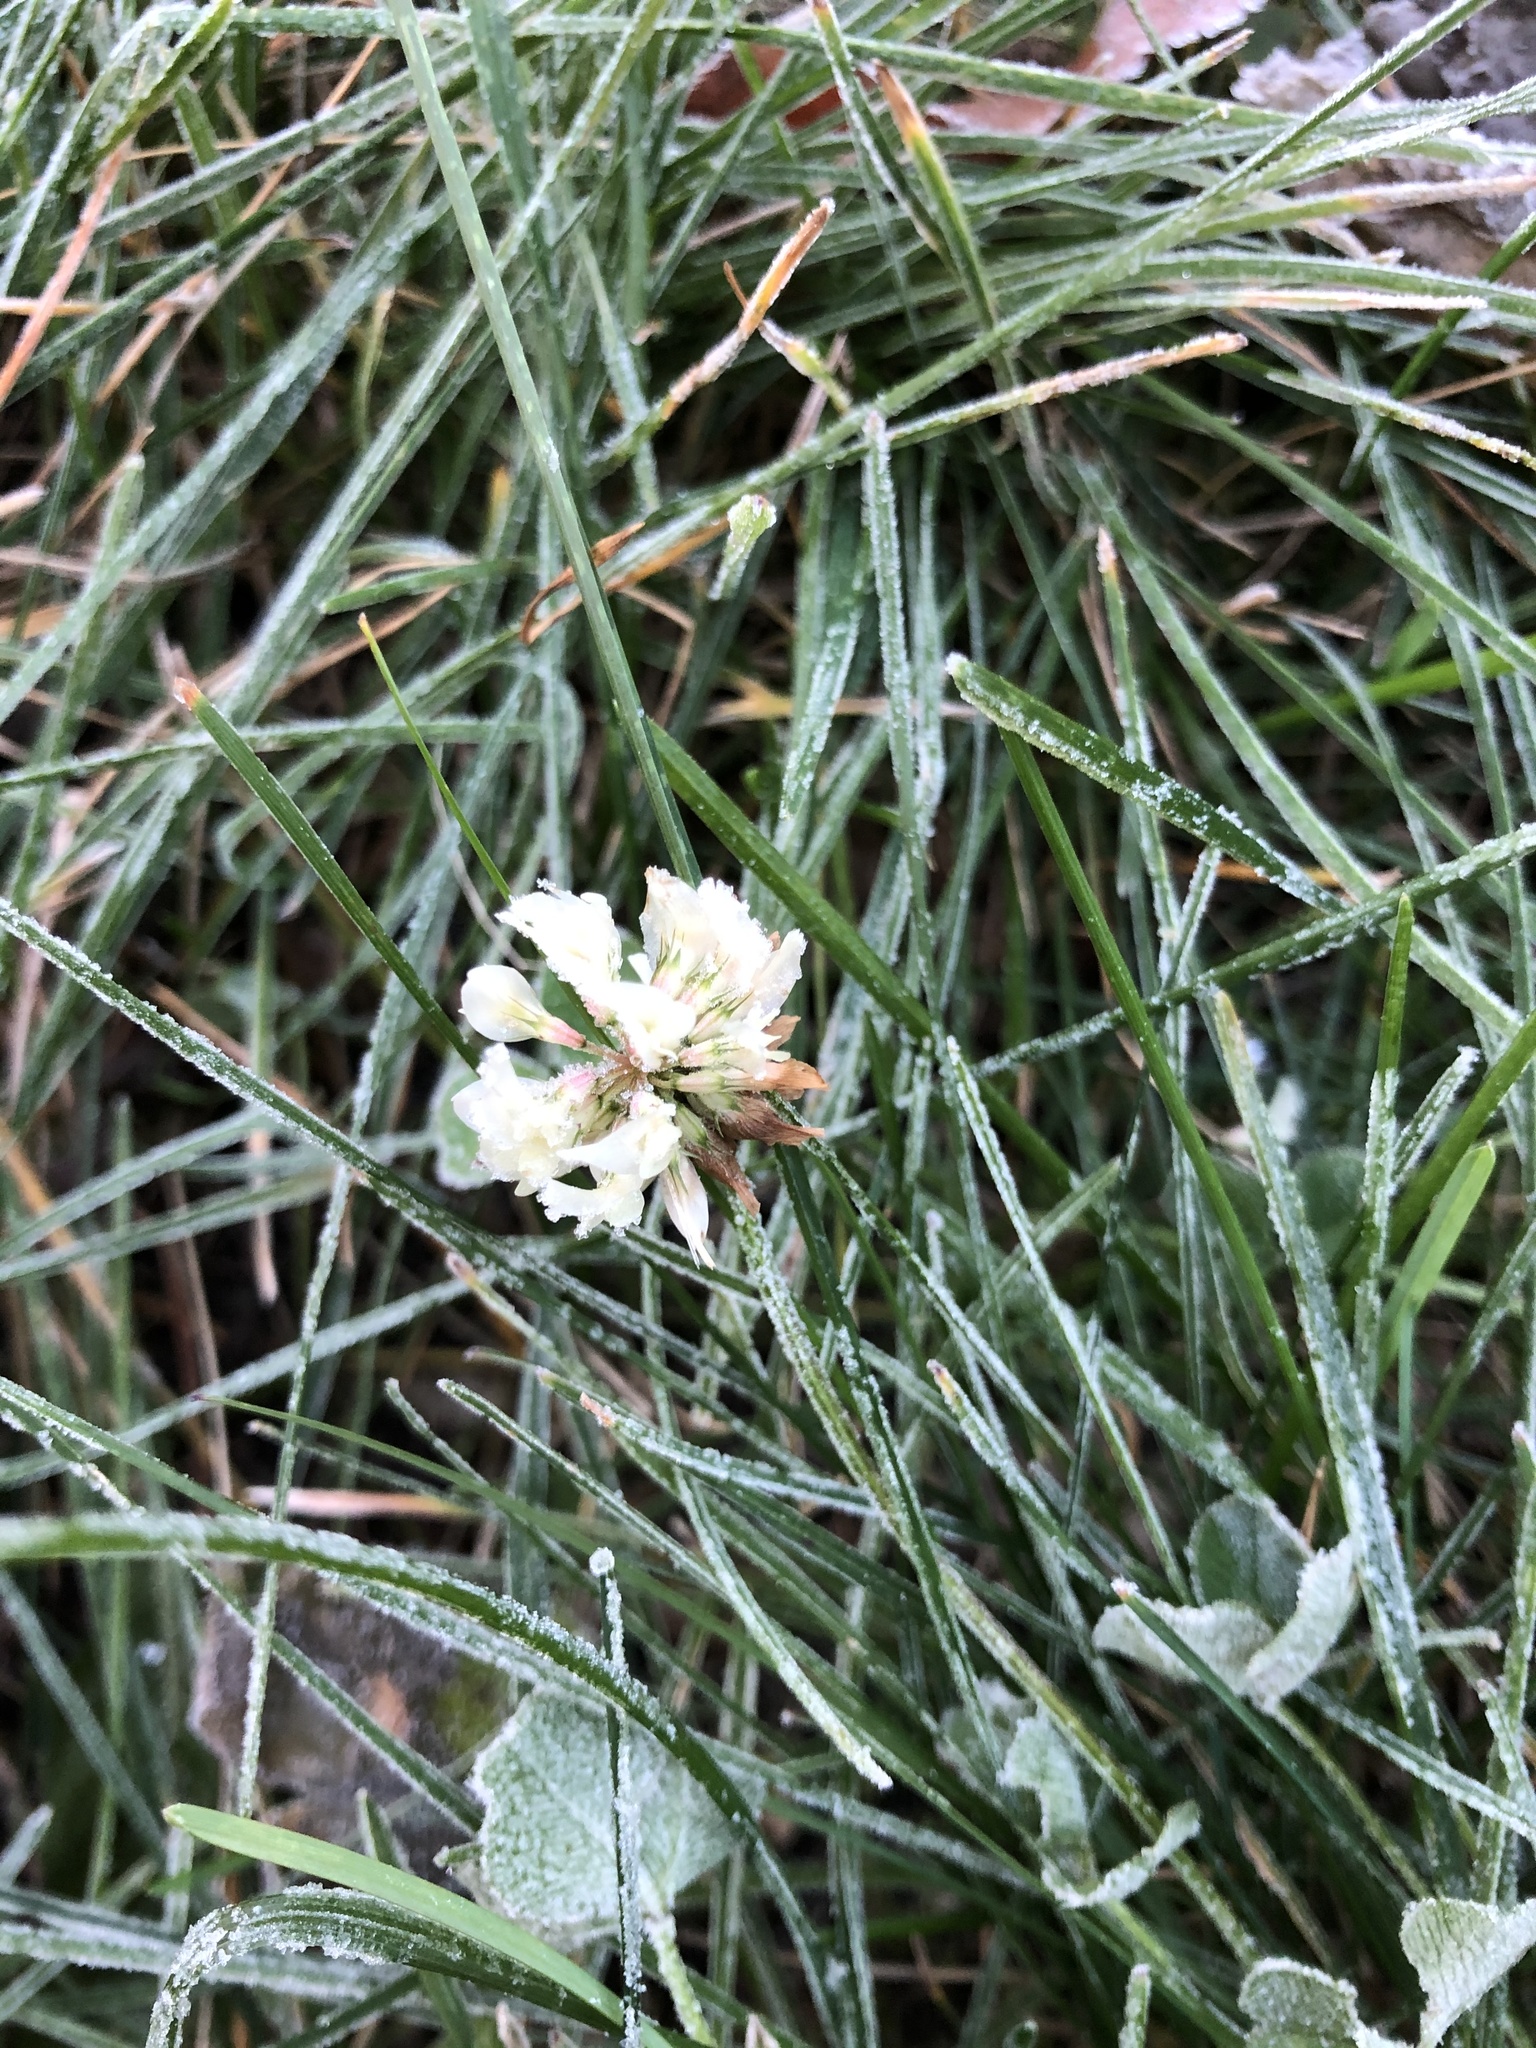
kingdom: Plantae
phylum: Tracheophyta
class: Magnoliopsida
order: Fabales
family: Fabaceae
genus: Trifolium
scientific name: Trifolium repens
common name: White clover
